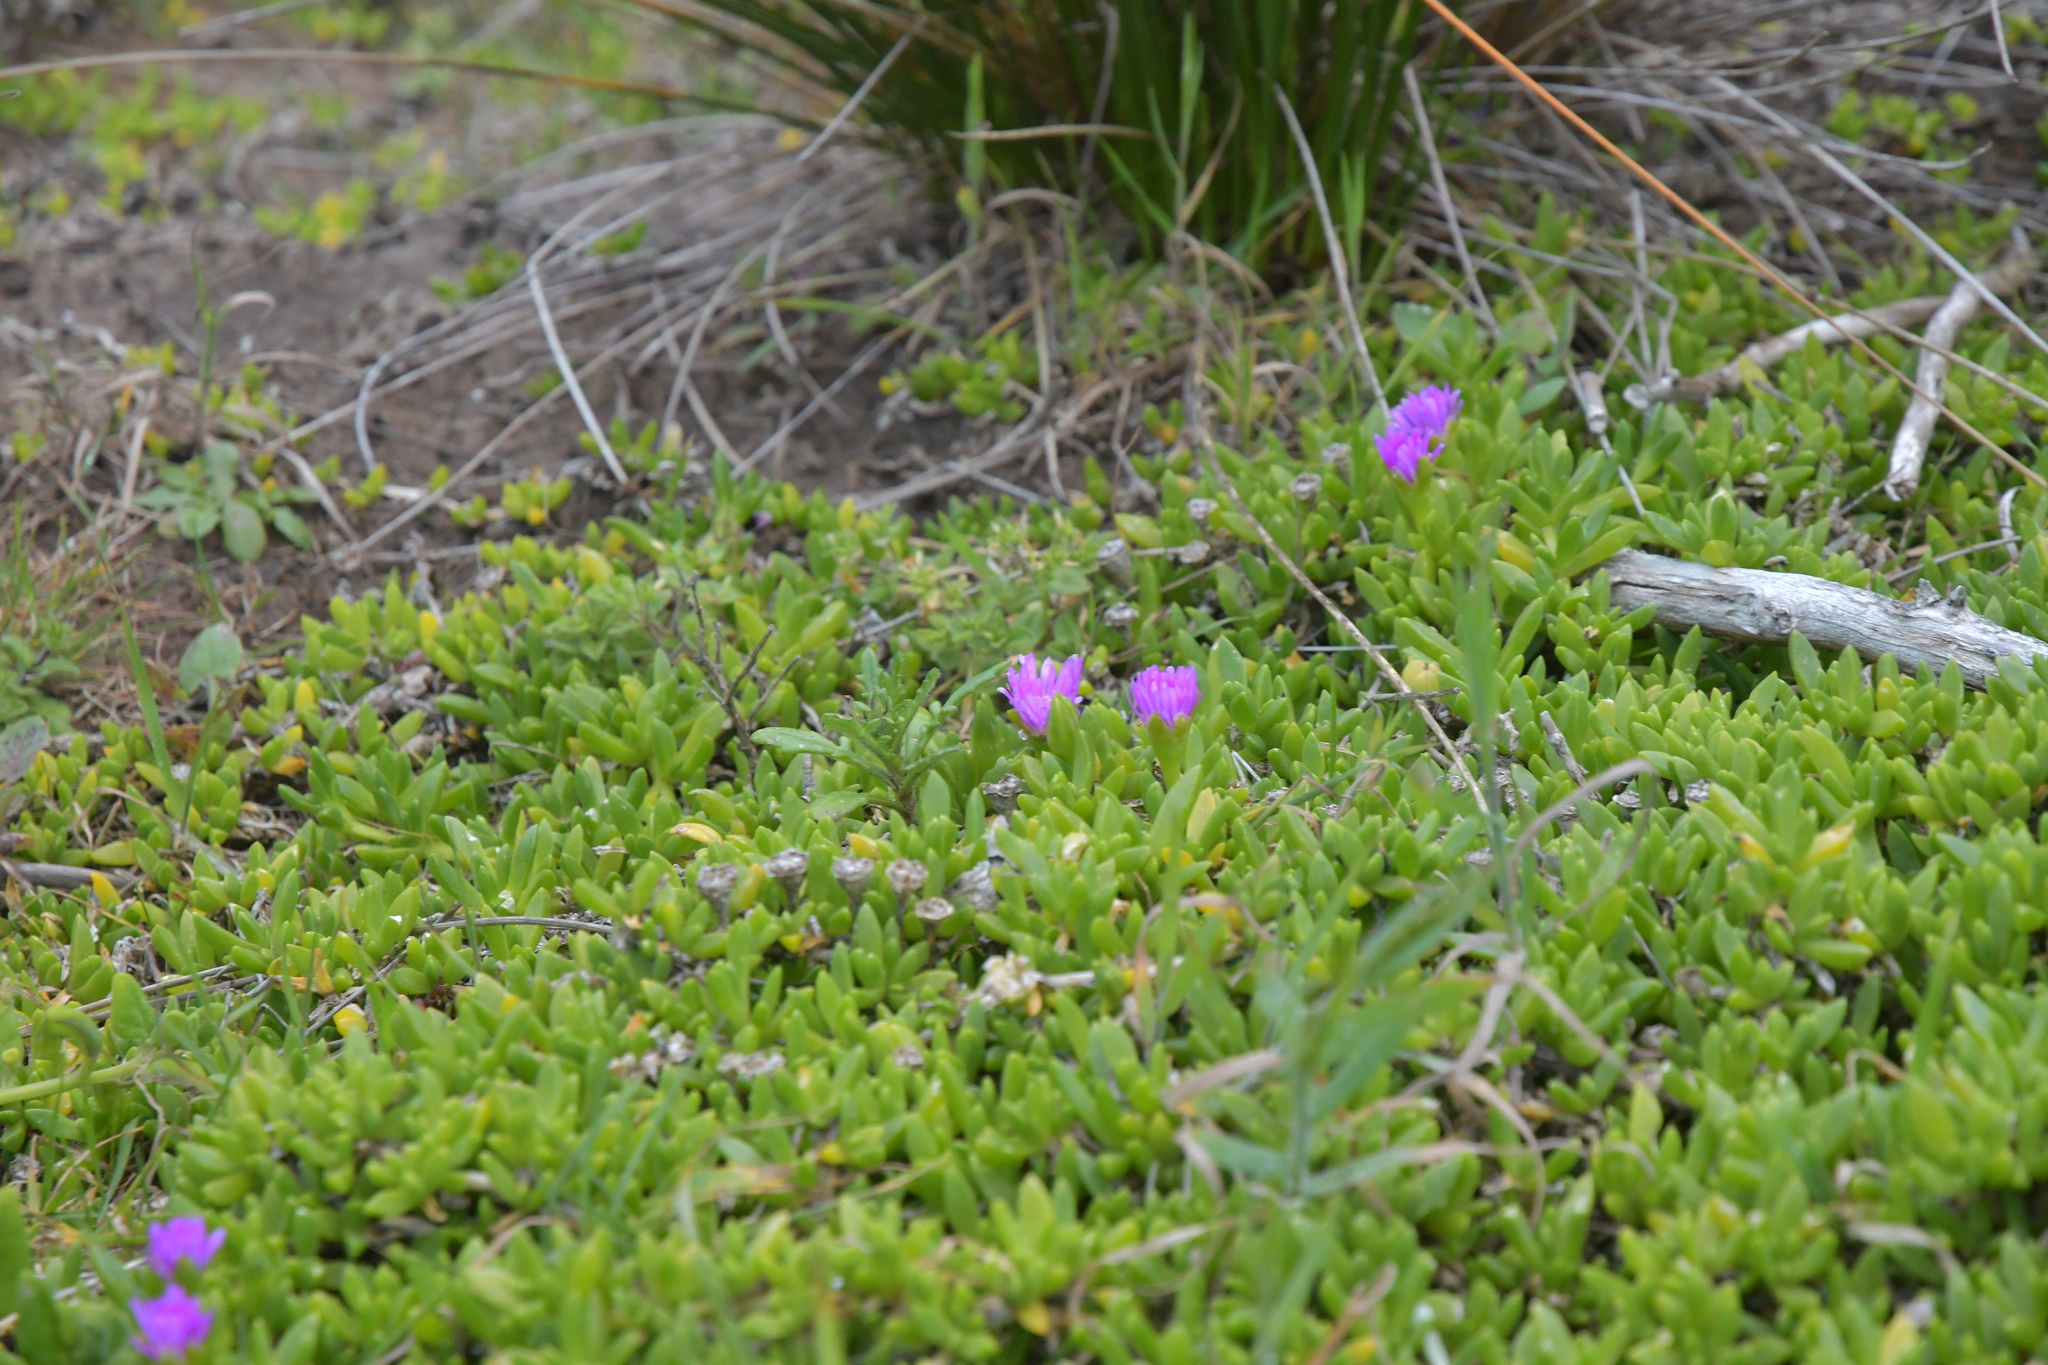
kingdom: Plantae
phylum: Tracheophyta
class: Magnoliopsida
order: Caryophyllales
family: Aizoaceae
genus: Disphyma
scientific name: Disphyma papillatum
